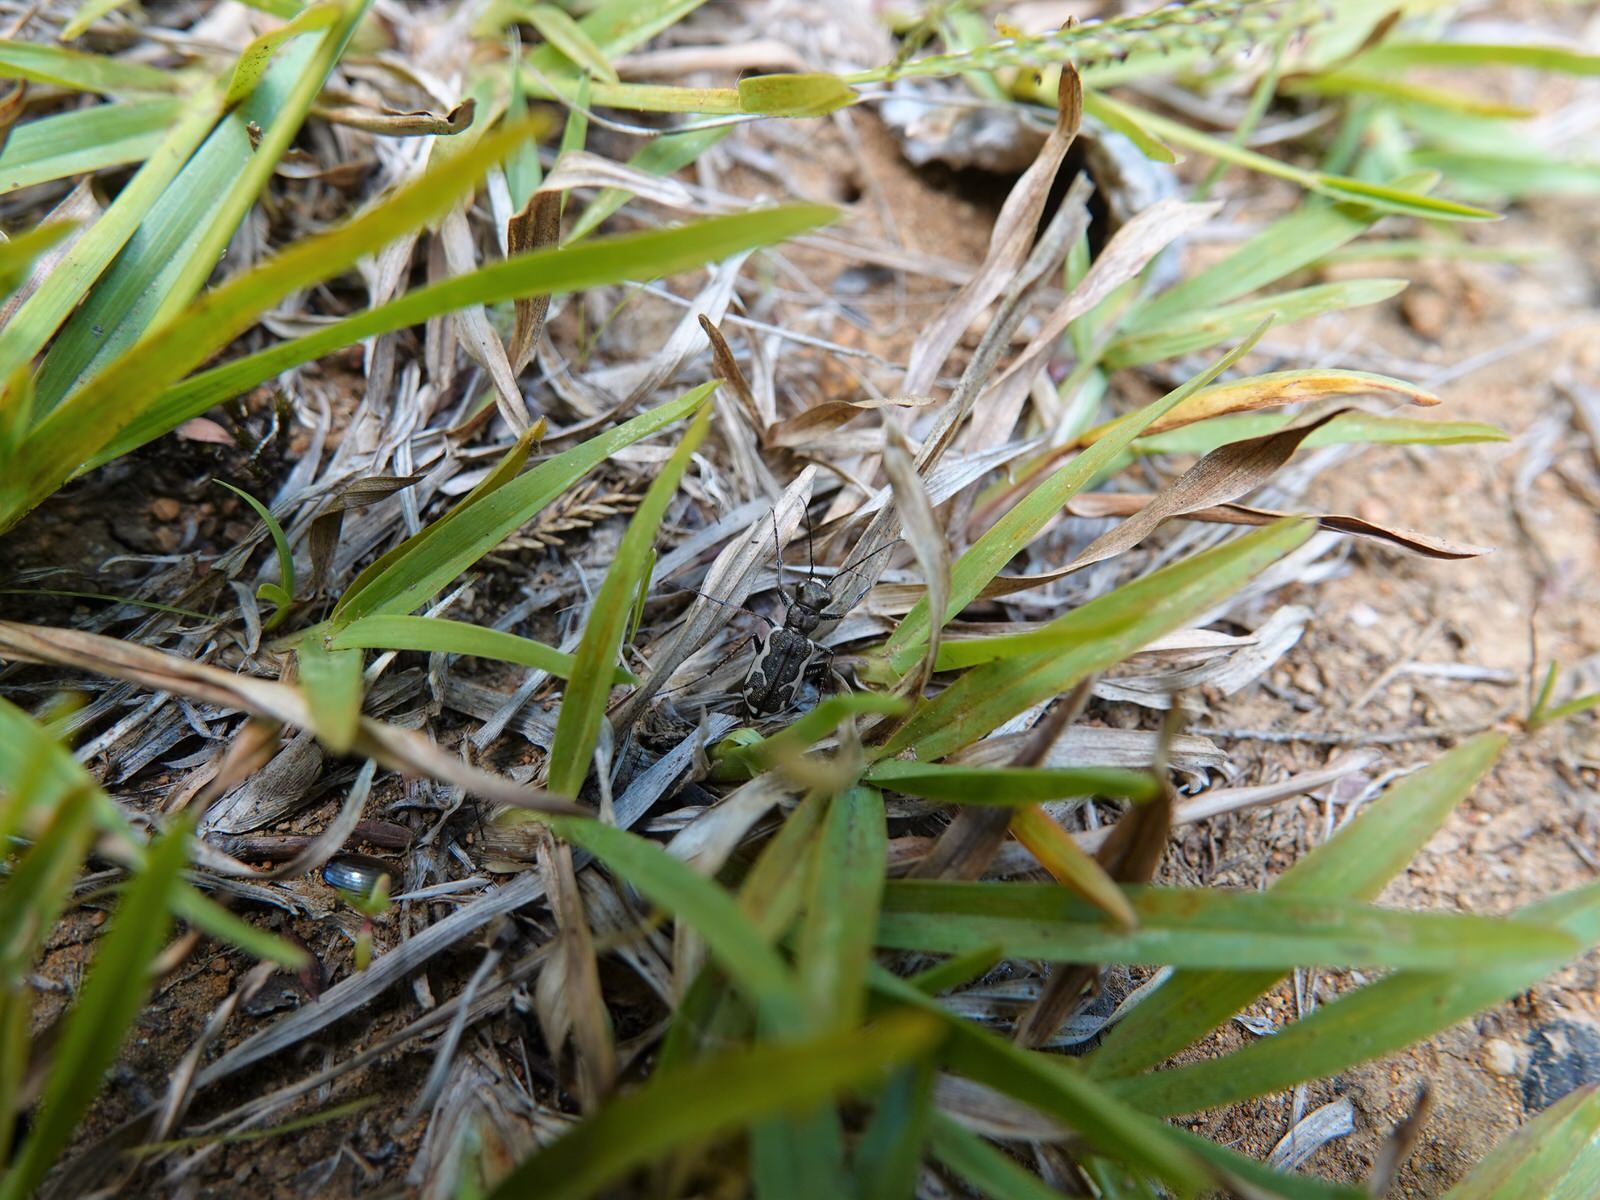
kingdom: Animalia
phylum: Arthropoda
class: Insecta
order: Coleoptera
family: Carabidae
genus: Neocicindela
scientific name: Neocicindela tuberculata
